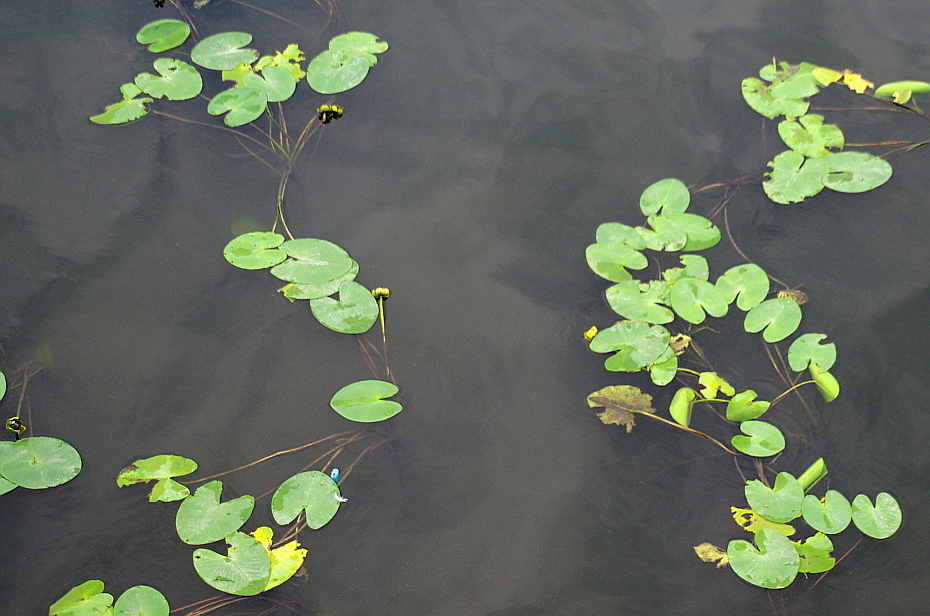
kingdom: Plantae
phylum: Tracheophyta
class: Magnoliopsida
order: Nymphaeales
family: Nymphaeaceae
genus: Nuphar
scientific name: Nuphar lutea
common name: Yellow water-lily
